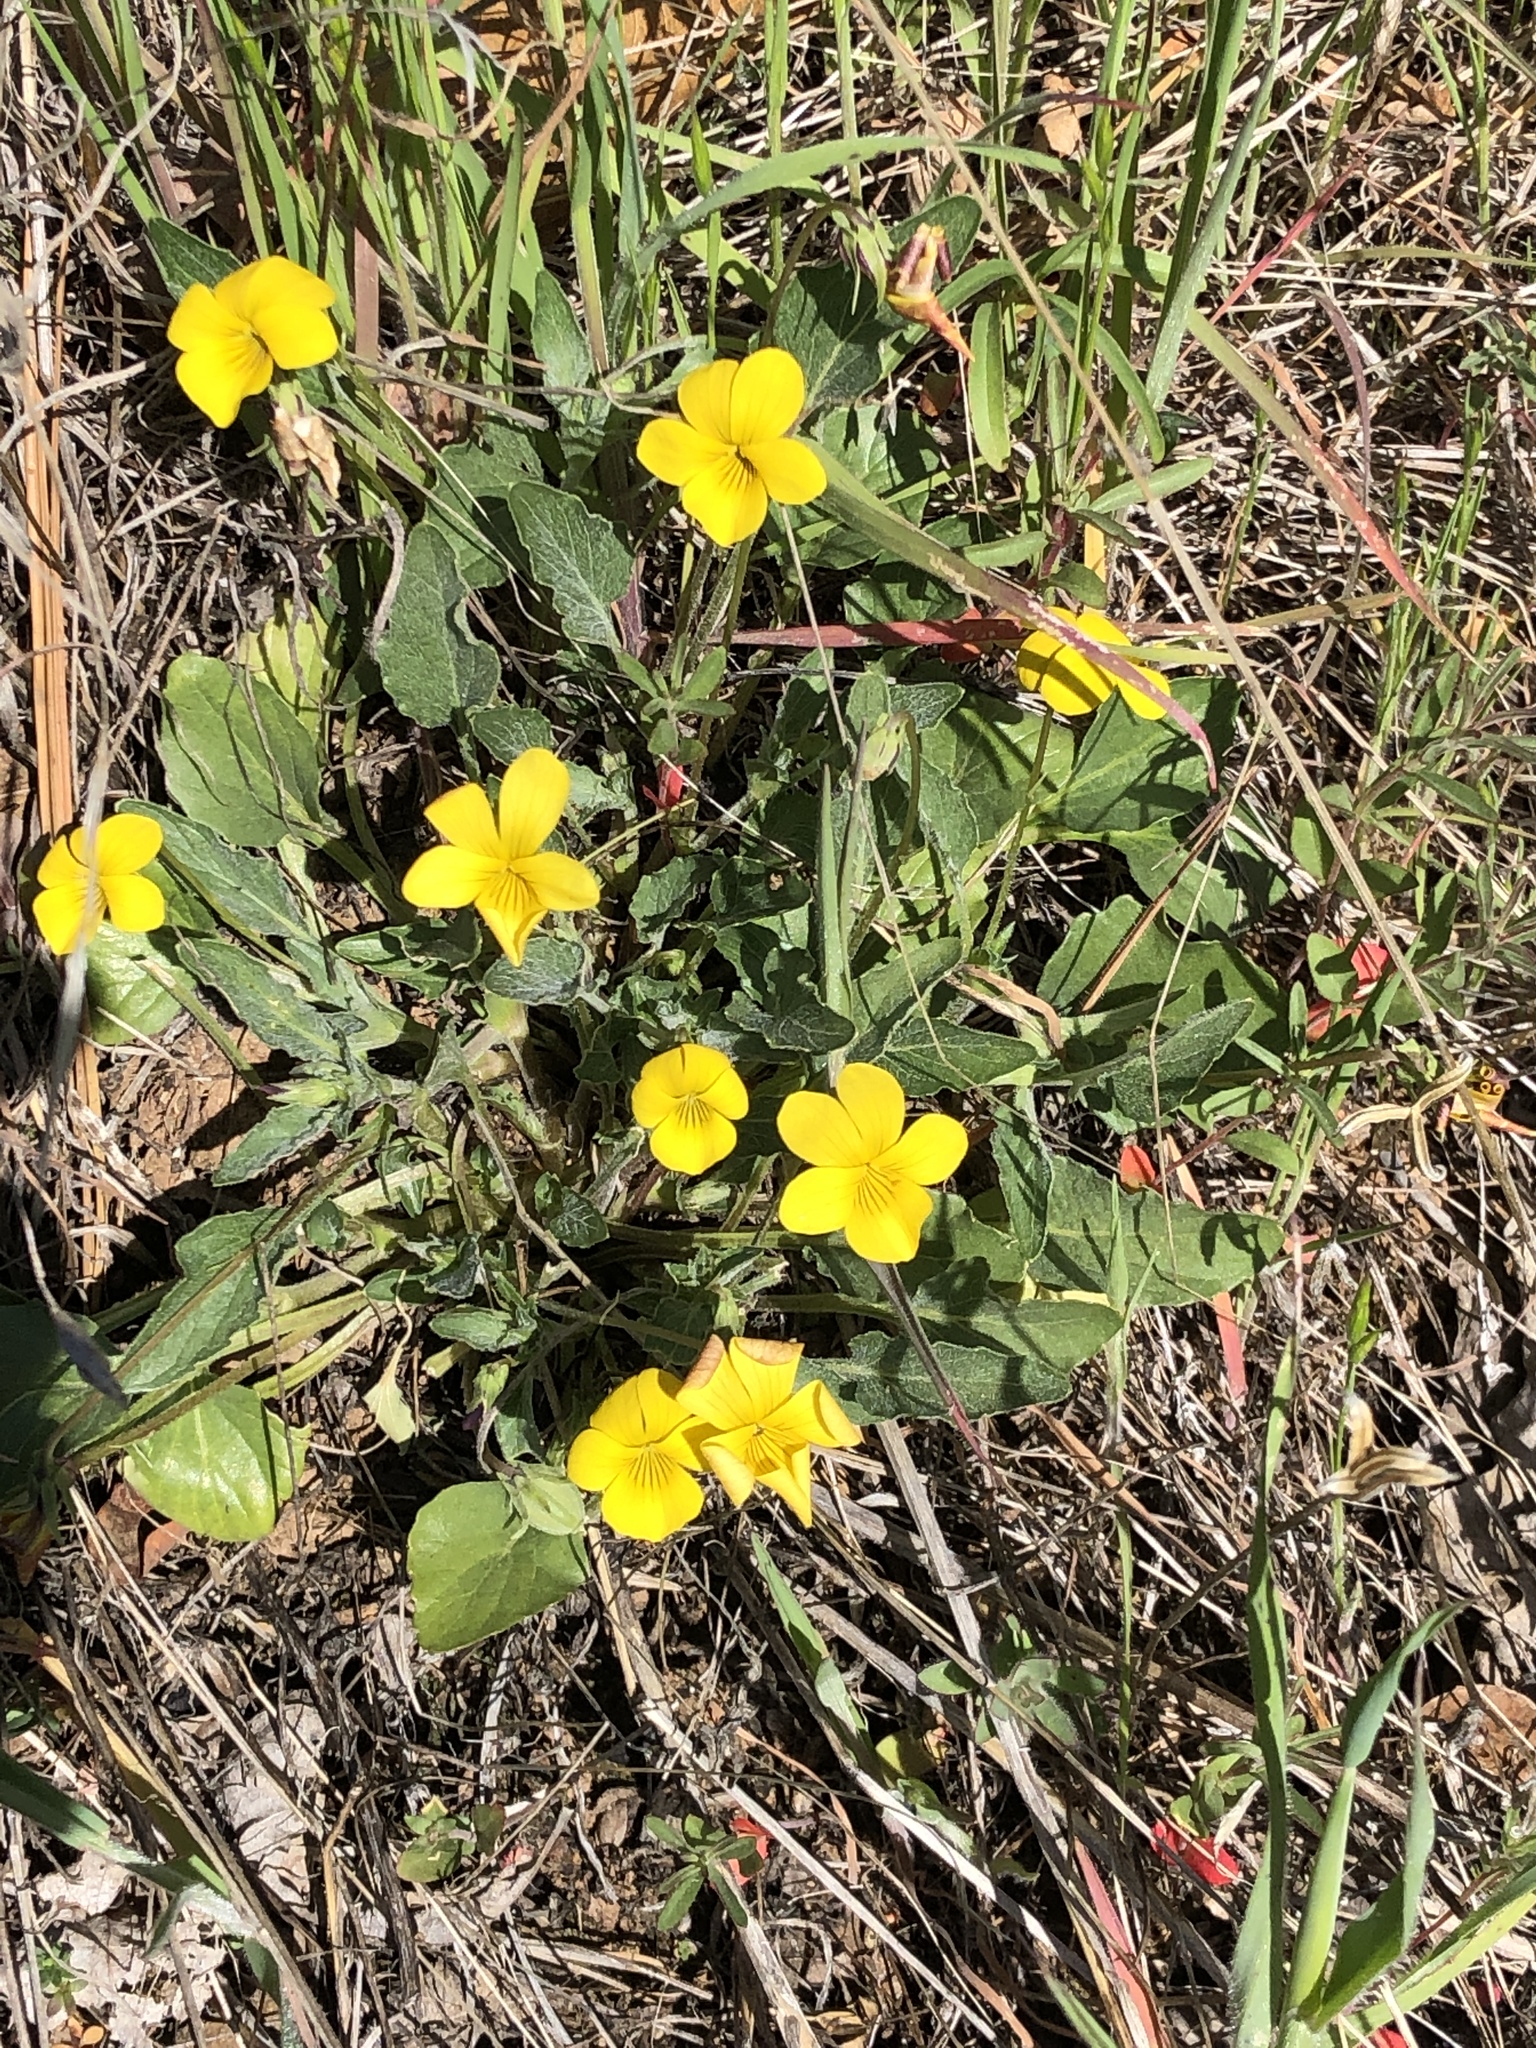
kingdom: Plantae
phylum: Tracheophyta
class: Magnoliopsida
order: Malpighiales
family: Violaceae
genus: Viola
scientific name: Viola purpurea
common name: Pine violet
